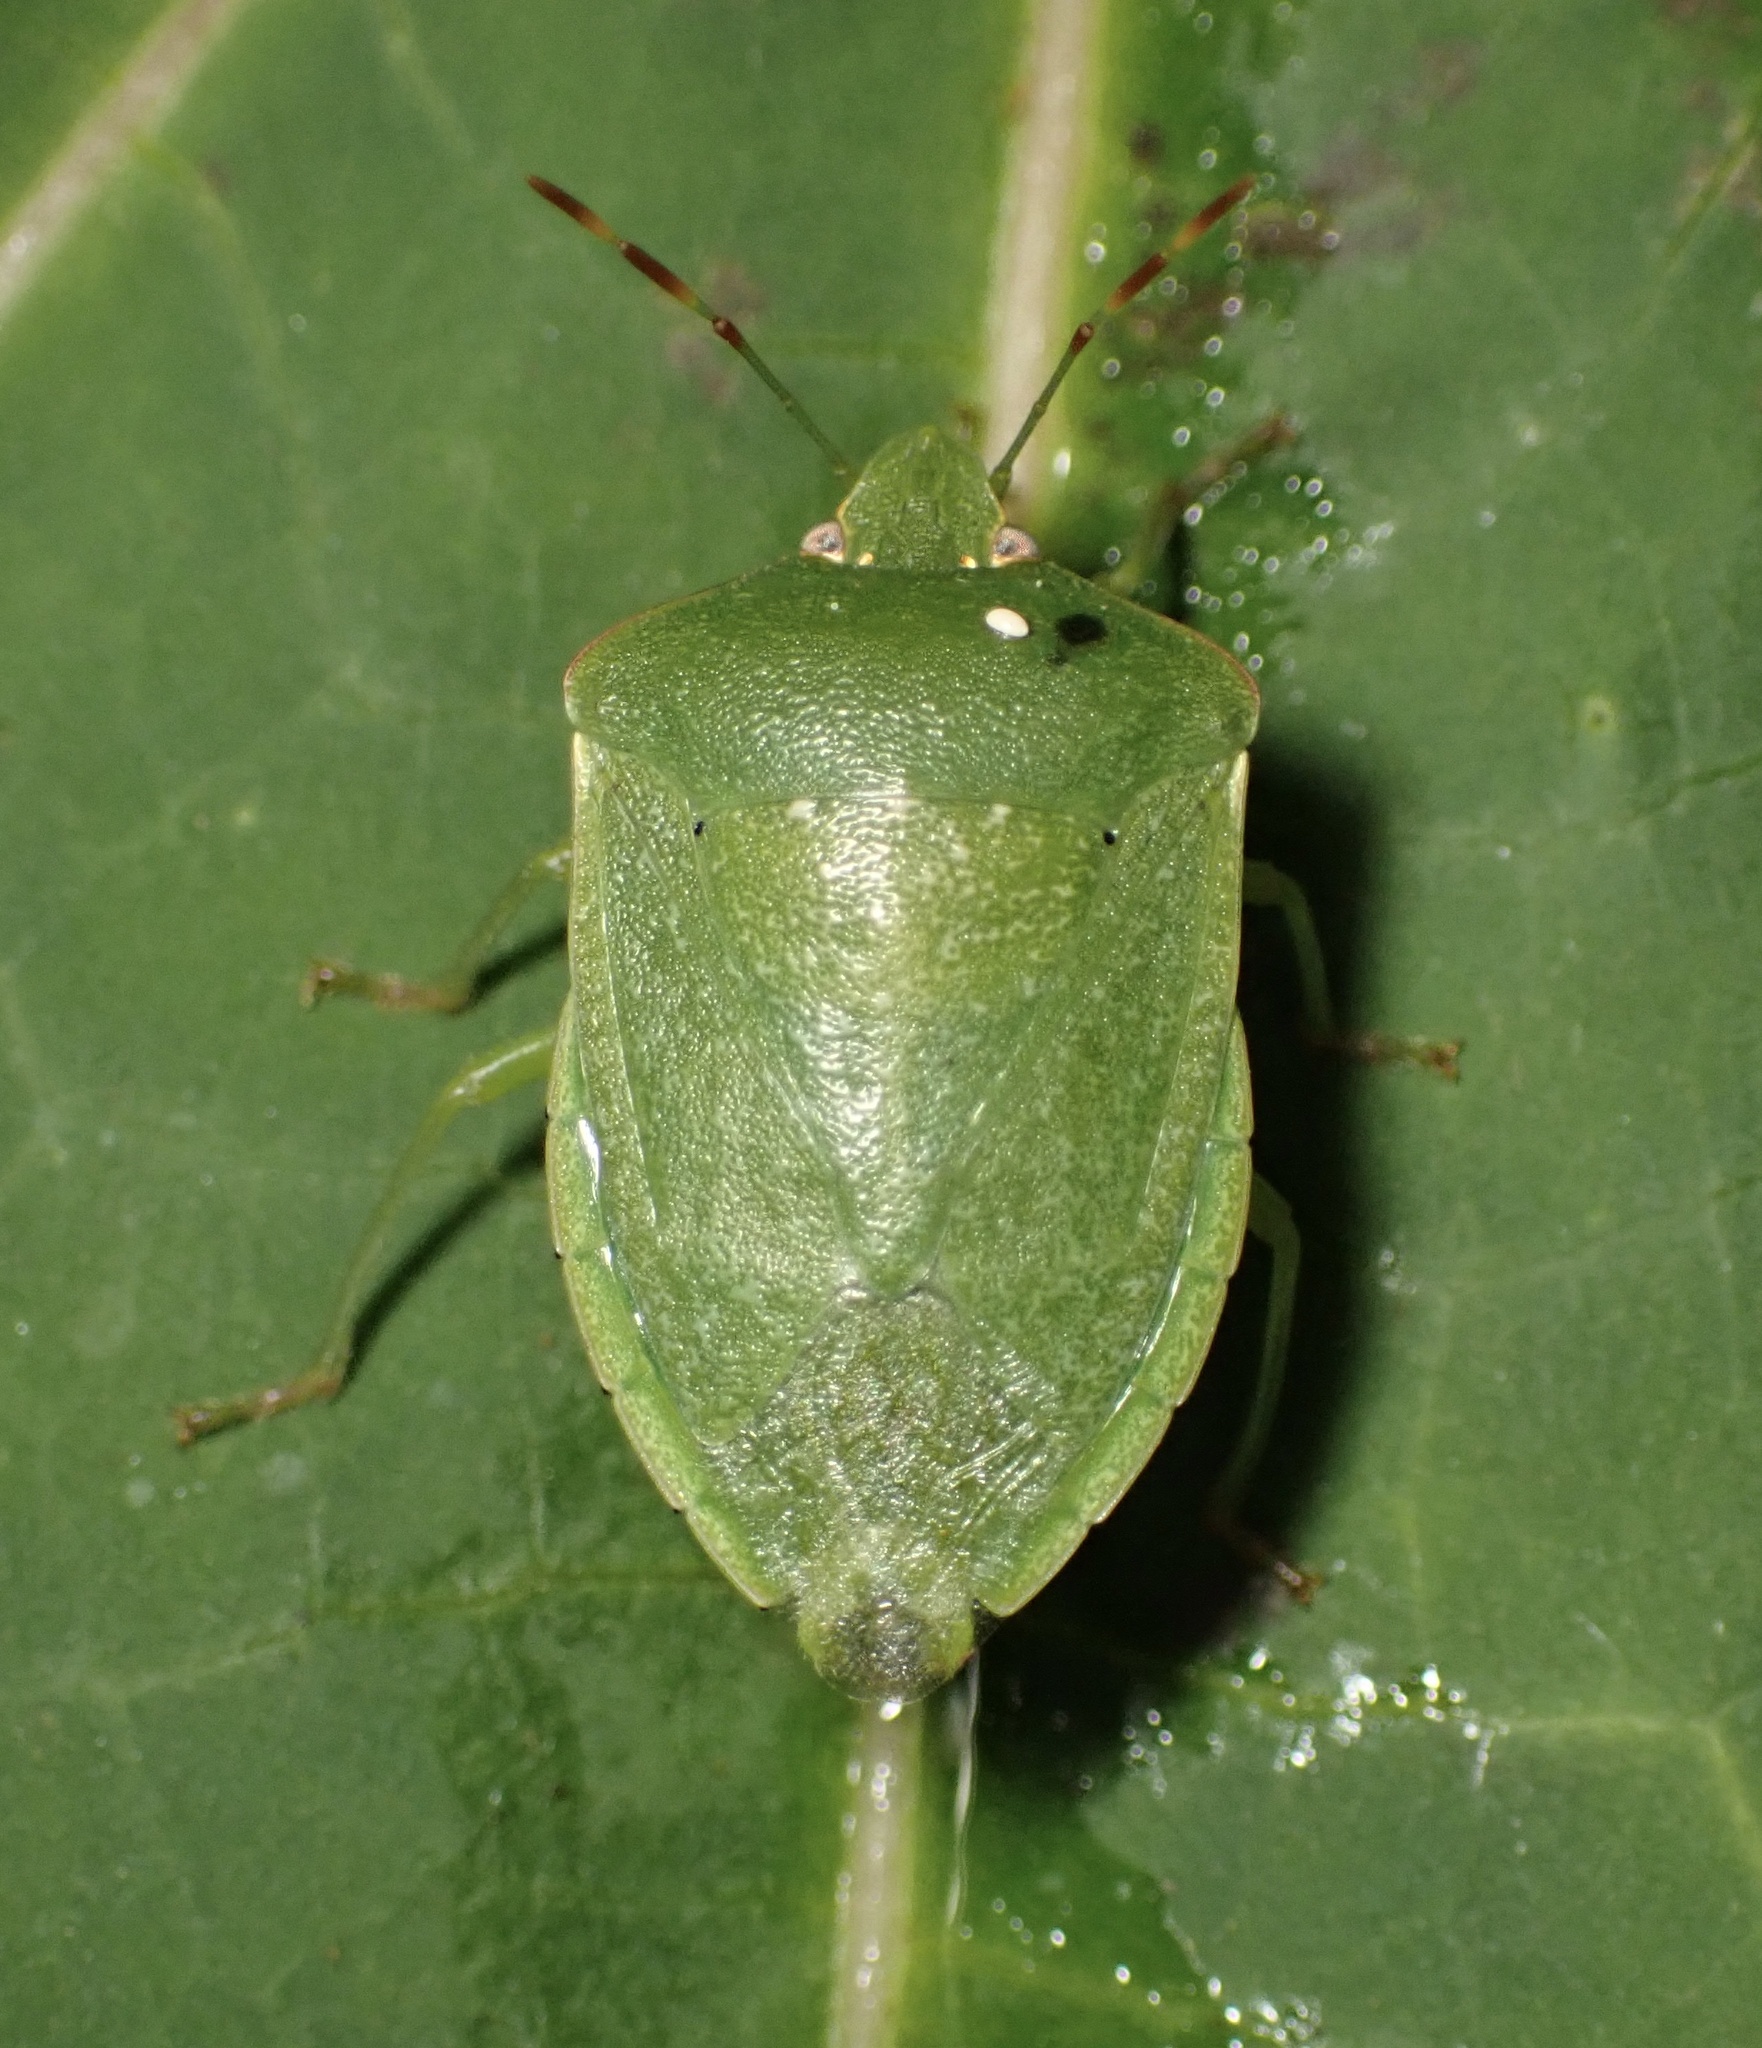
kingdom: Animalia
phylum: Arthropoda
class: Insecta
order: Hemiptera
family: Pentatomidae
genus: Nezara
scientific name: Nezara viridula
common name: Southern green stink bug
